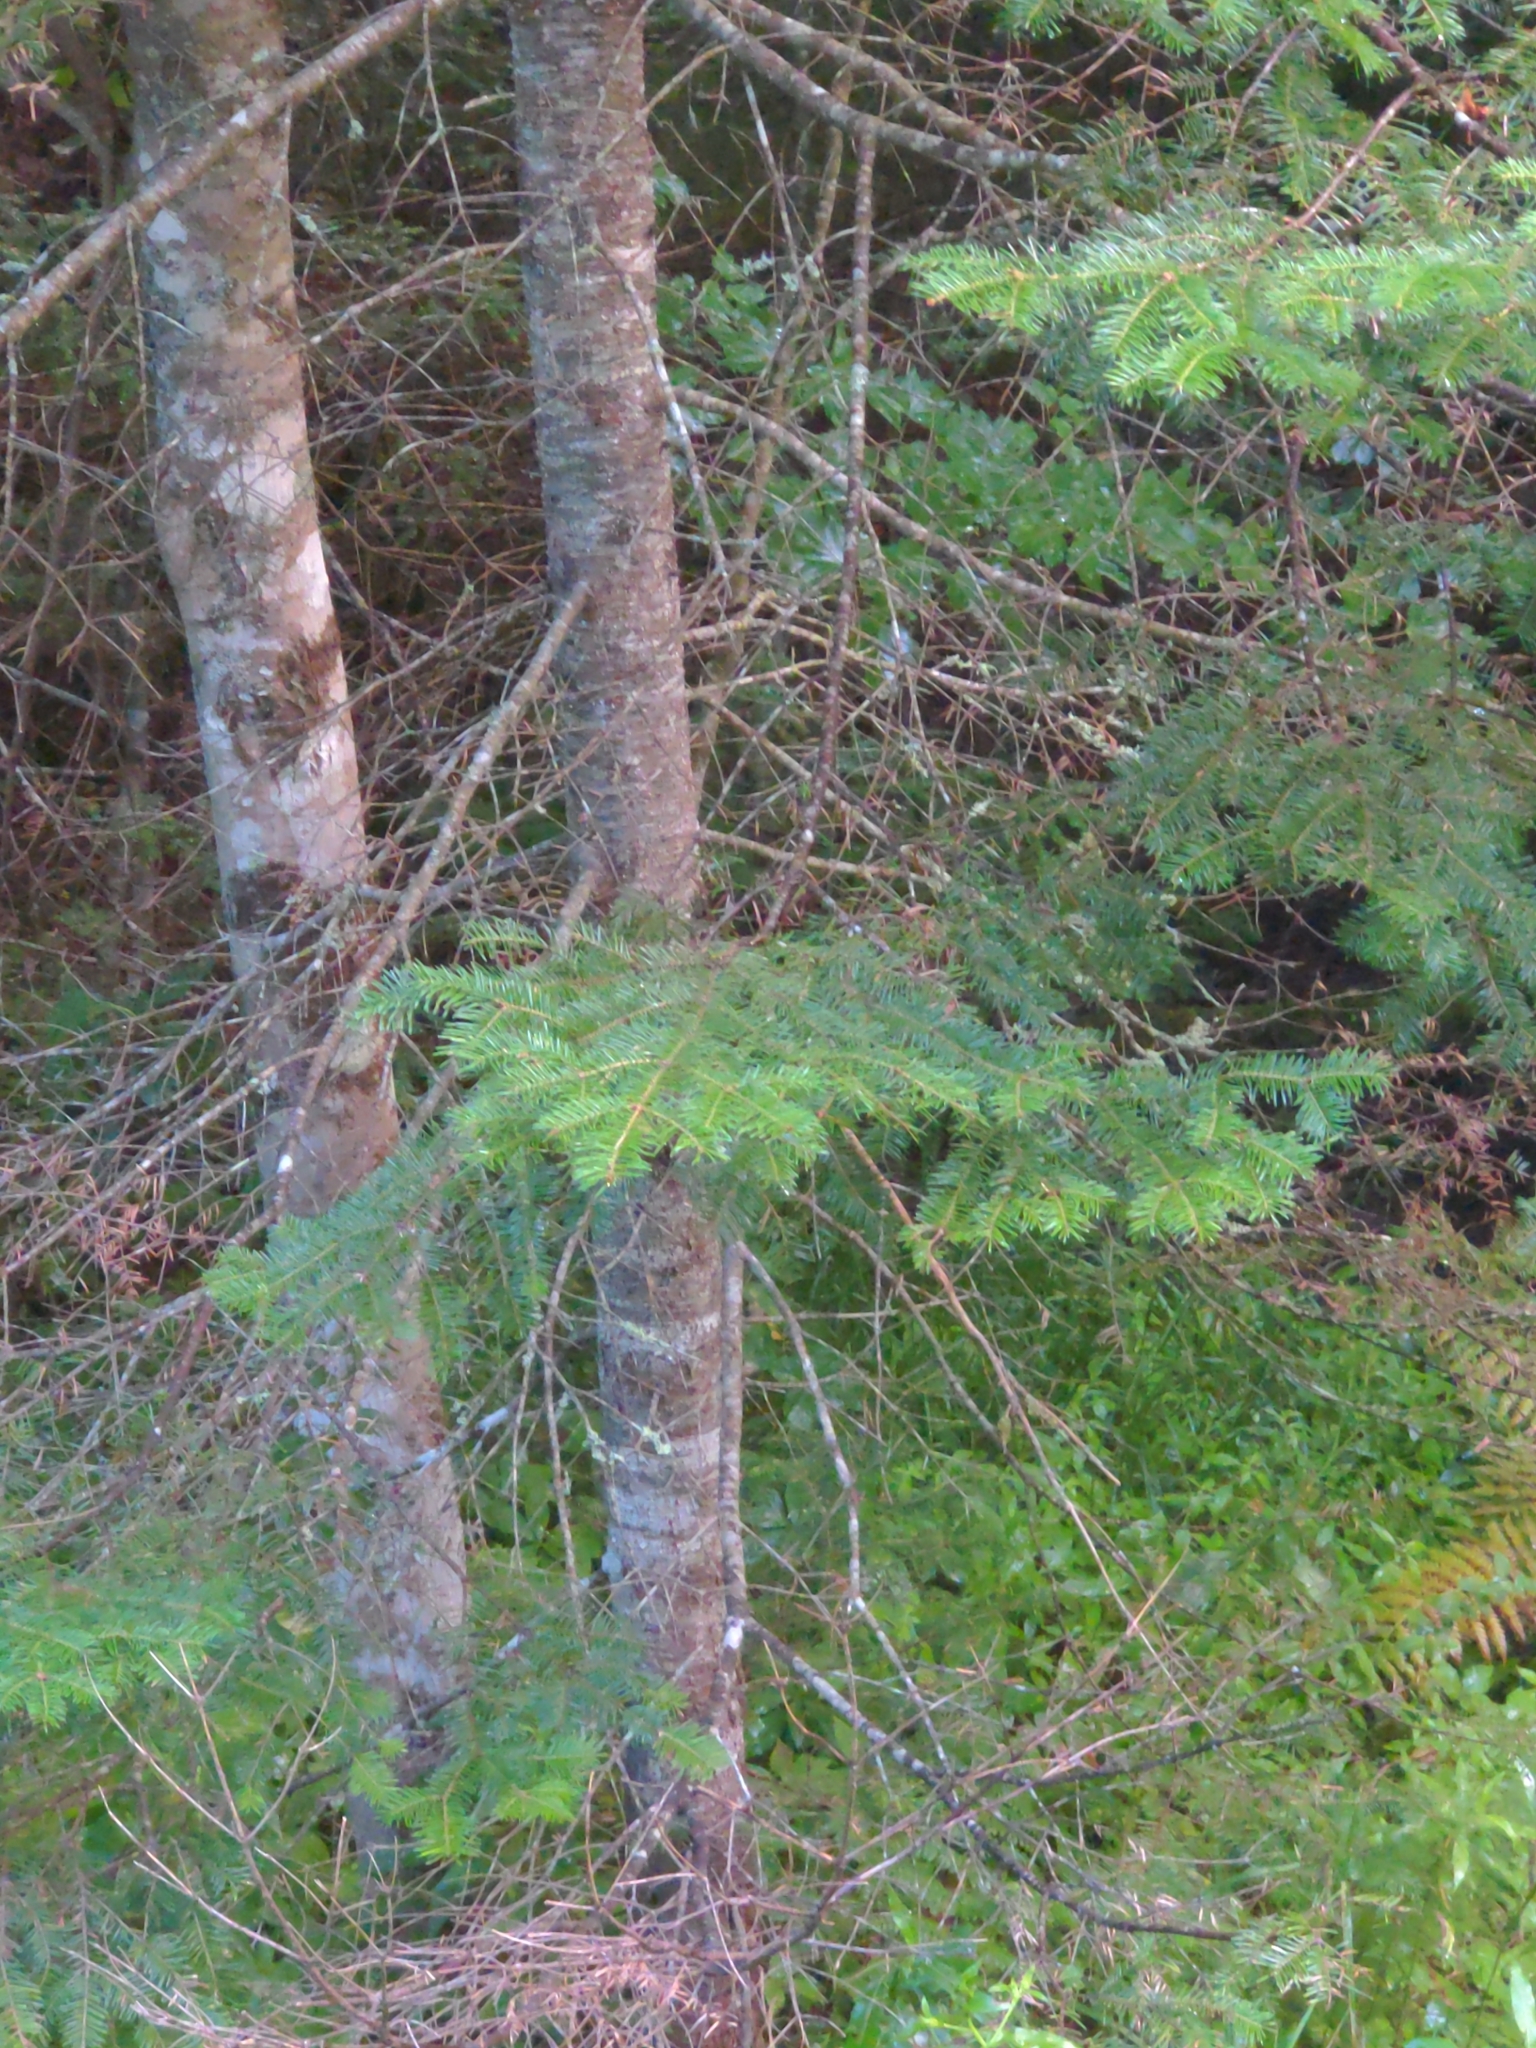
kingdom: Plantae
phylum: Tracheophyta
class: Pinopsida
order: Pinales
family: Pinaceae
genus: Abies
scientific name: Abies balsamea
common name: Balsam fir
